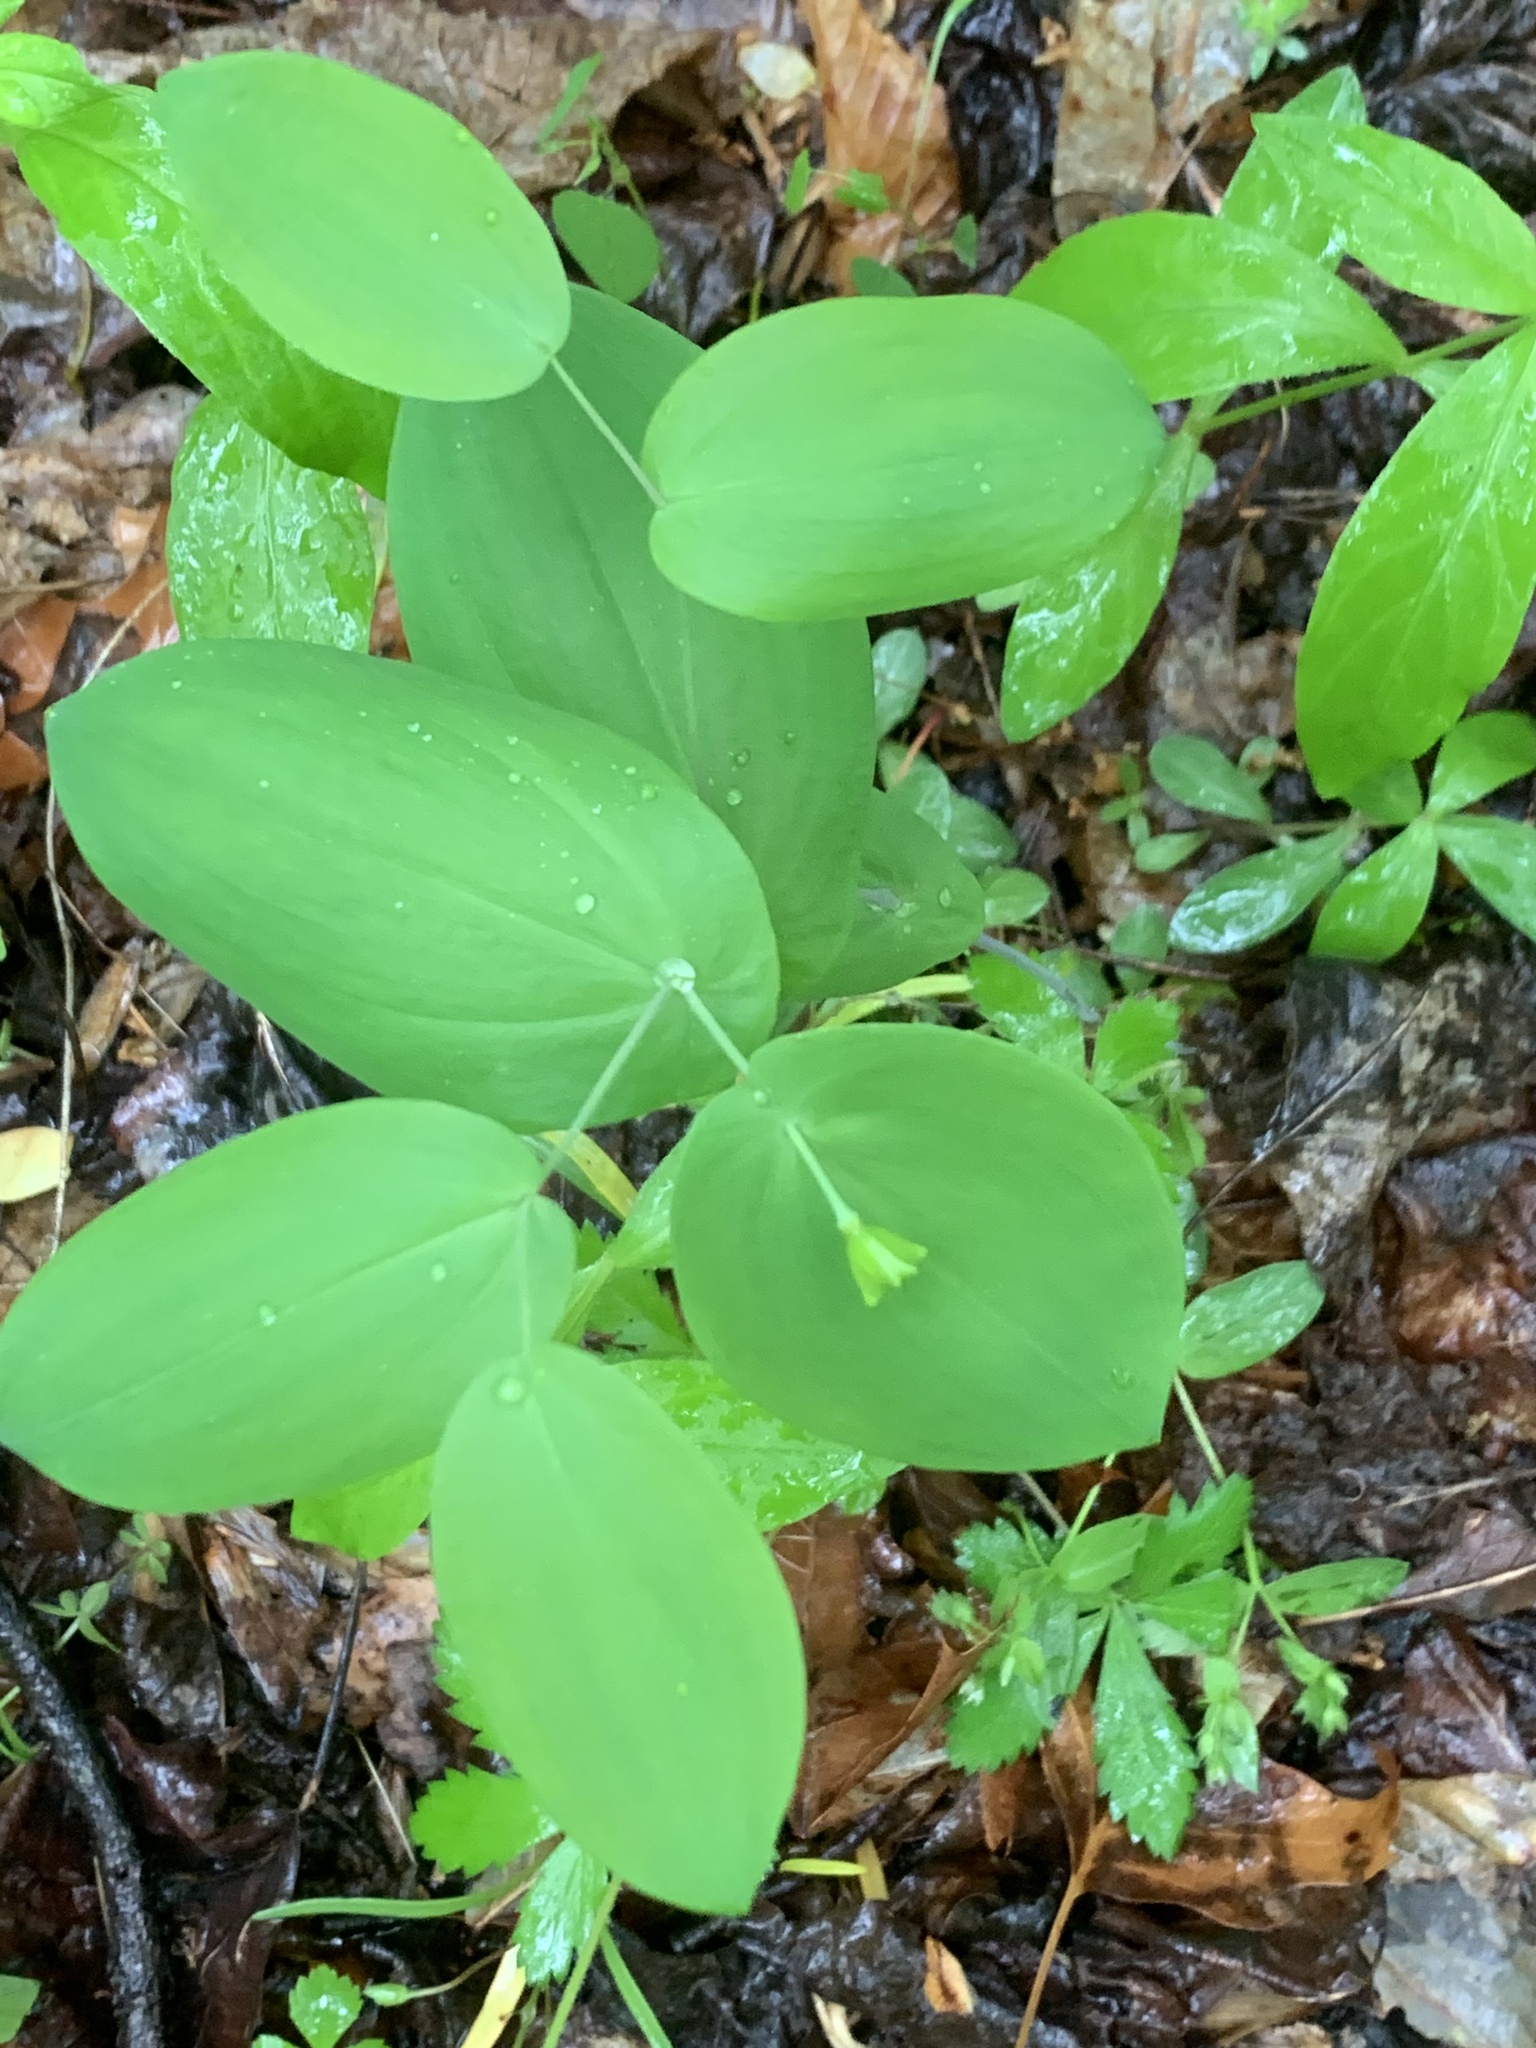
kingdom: Plantae
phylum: Tracheophyta
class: Liliopsida
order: Liliales
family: Colchicaceae
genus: Uvularia
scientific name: Uvularia perfoliata
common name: Perfoliate bellwort
